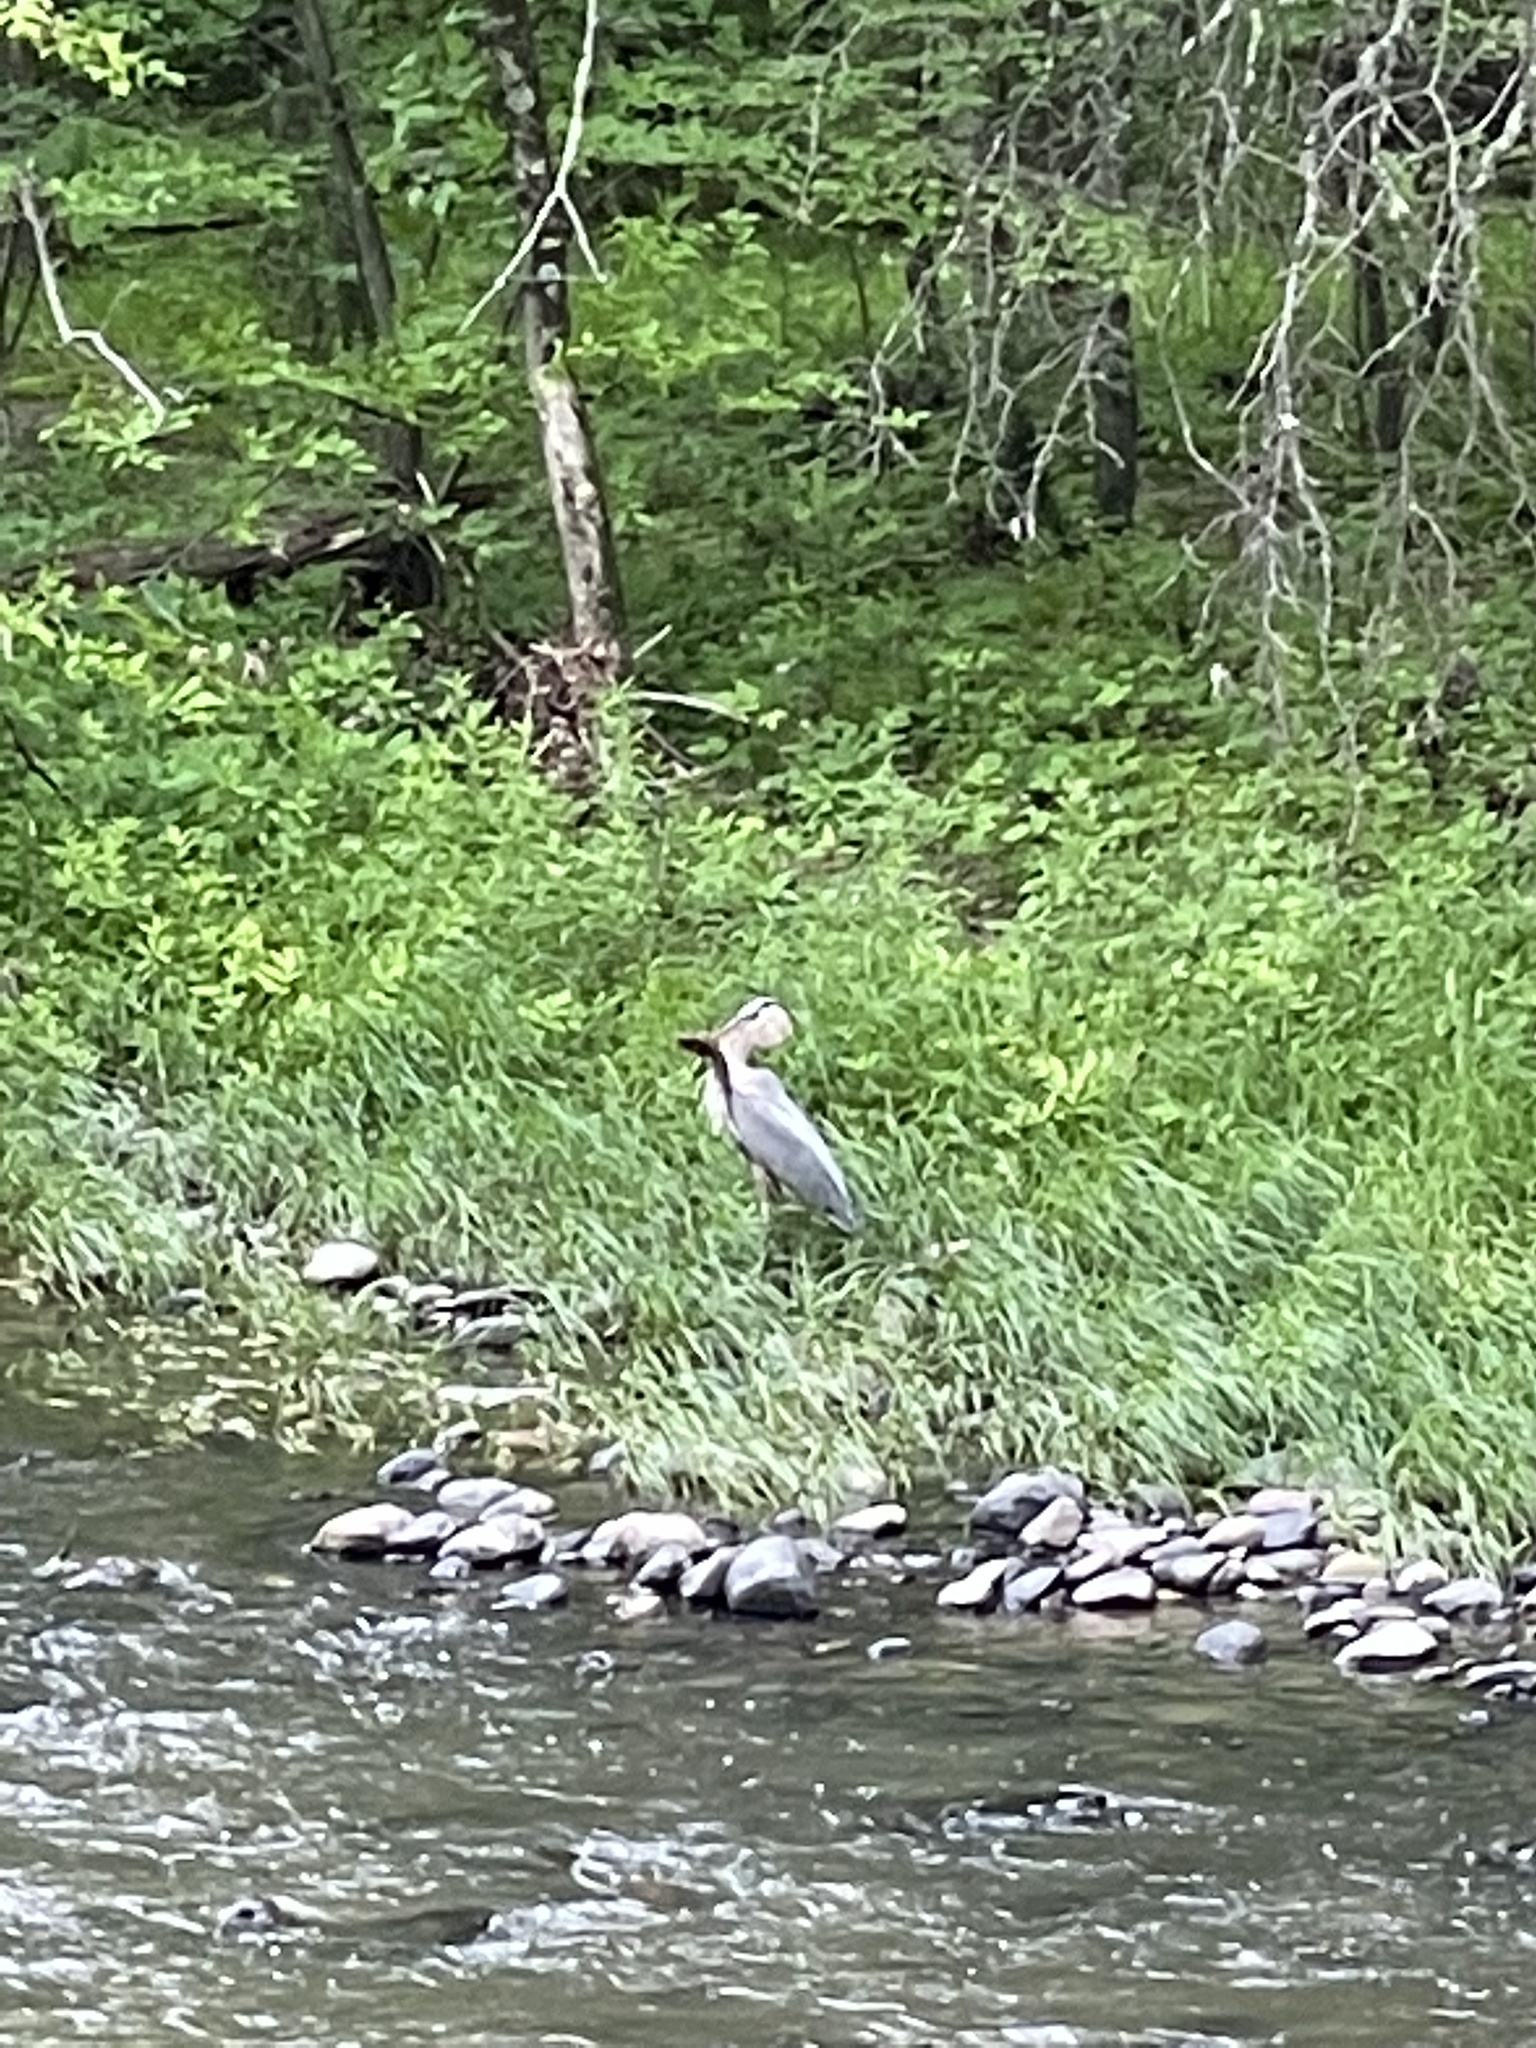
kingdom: Animalia
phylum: Chordata
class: Aves
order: Pelecaniformes
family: Ardeidae
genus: Ardea
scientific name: Ardea herodias
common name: Great blue heron
